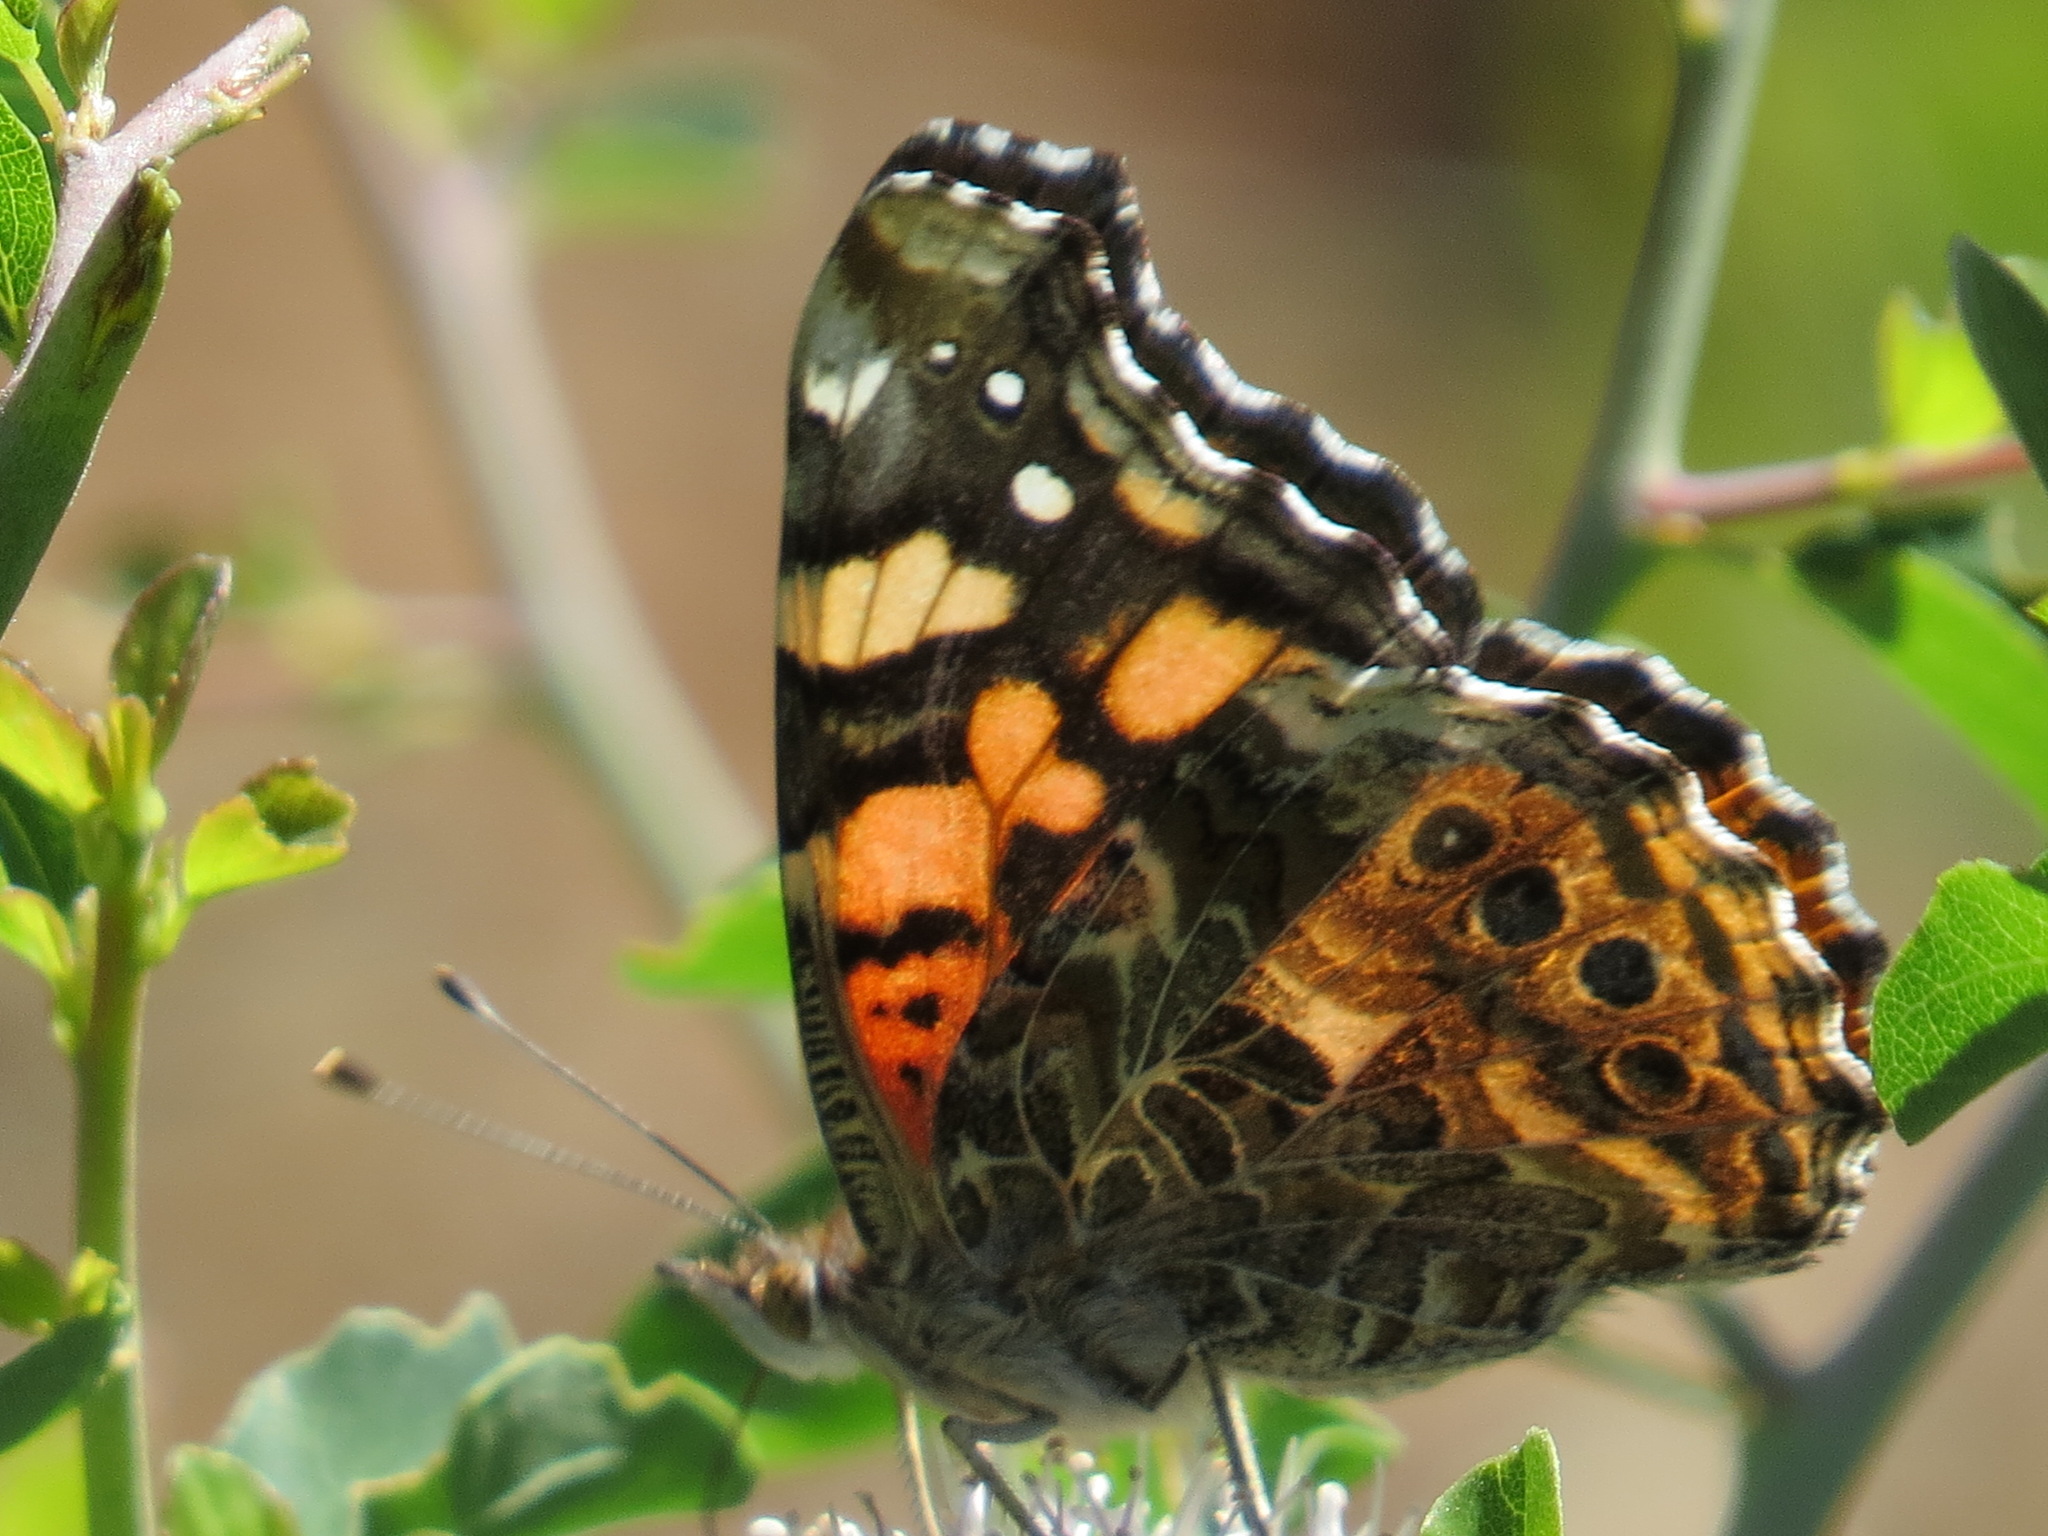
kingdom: Animalia
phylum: Arthropoda
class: Insecta
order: Lepidoptera
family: Nymphalidae
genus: Vanessa
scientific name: Vanessa annabella
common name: West coast lady
